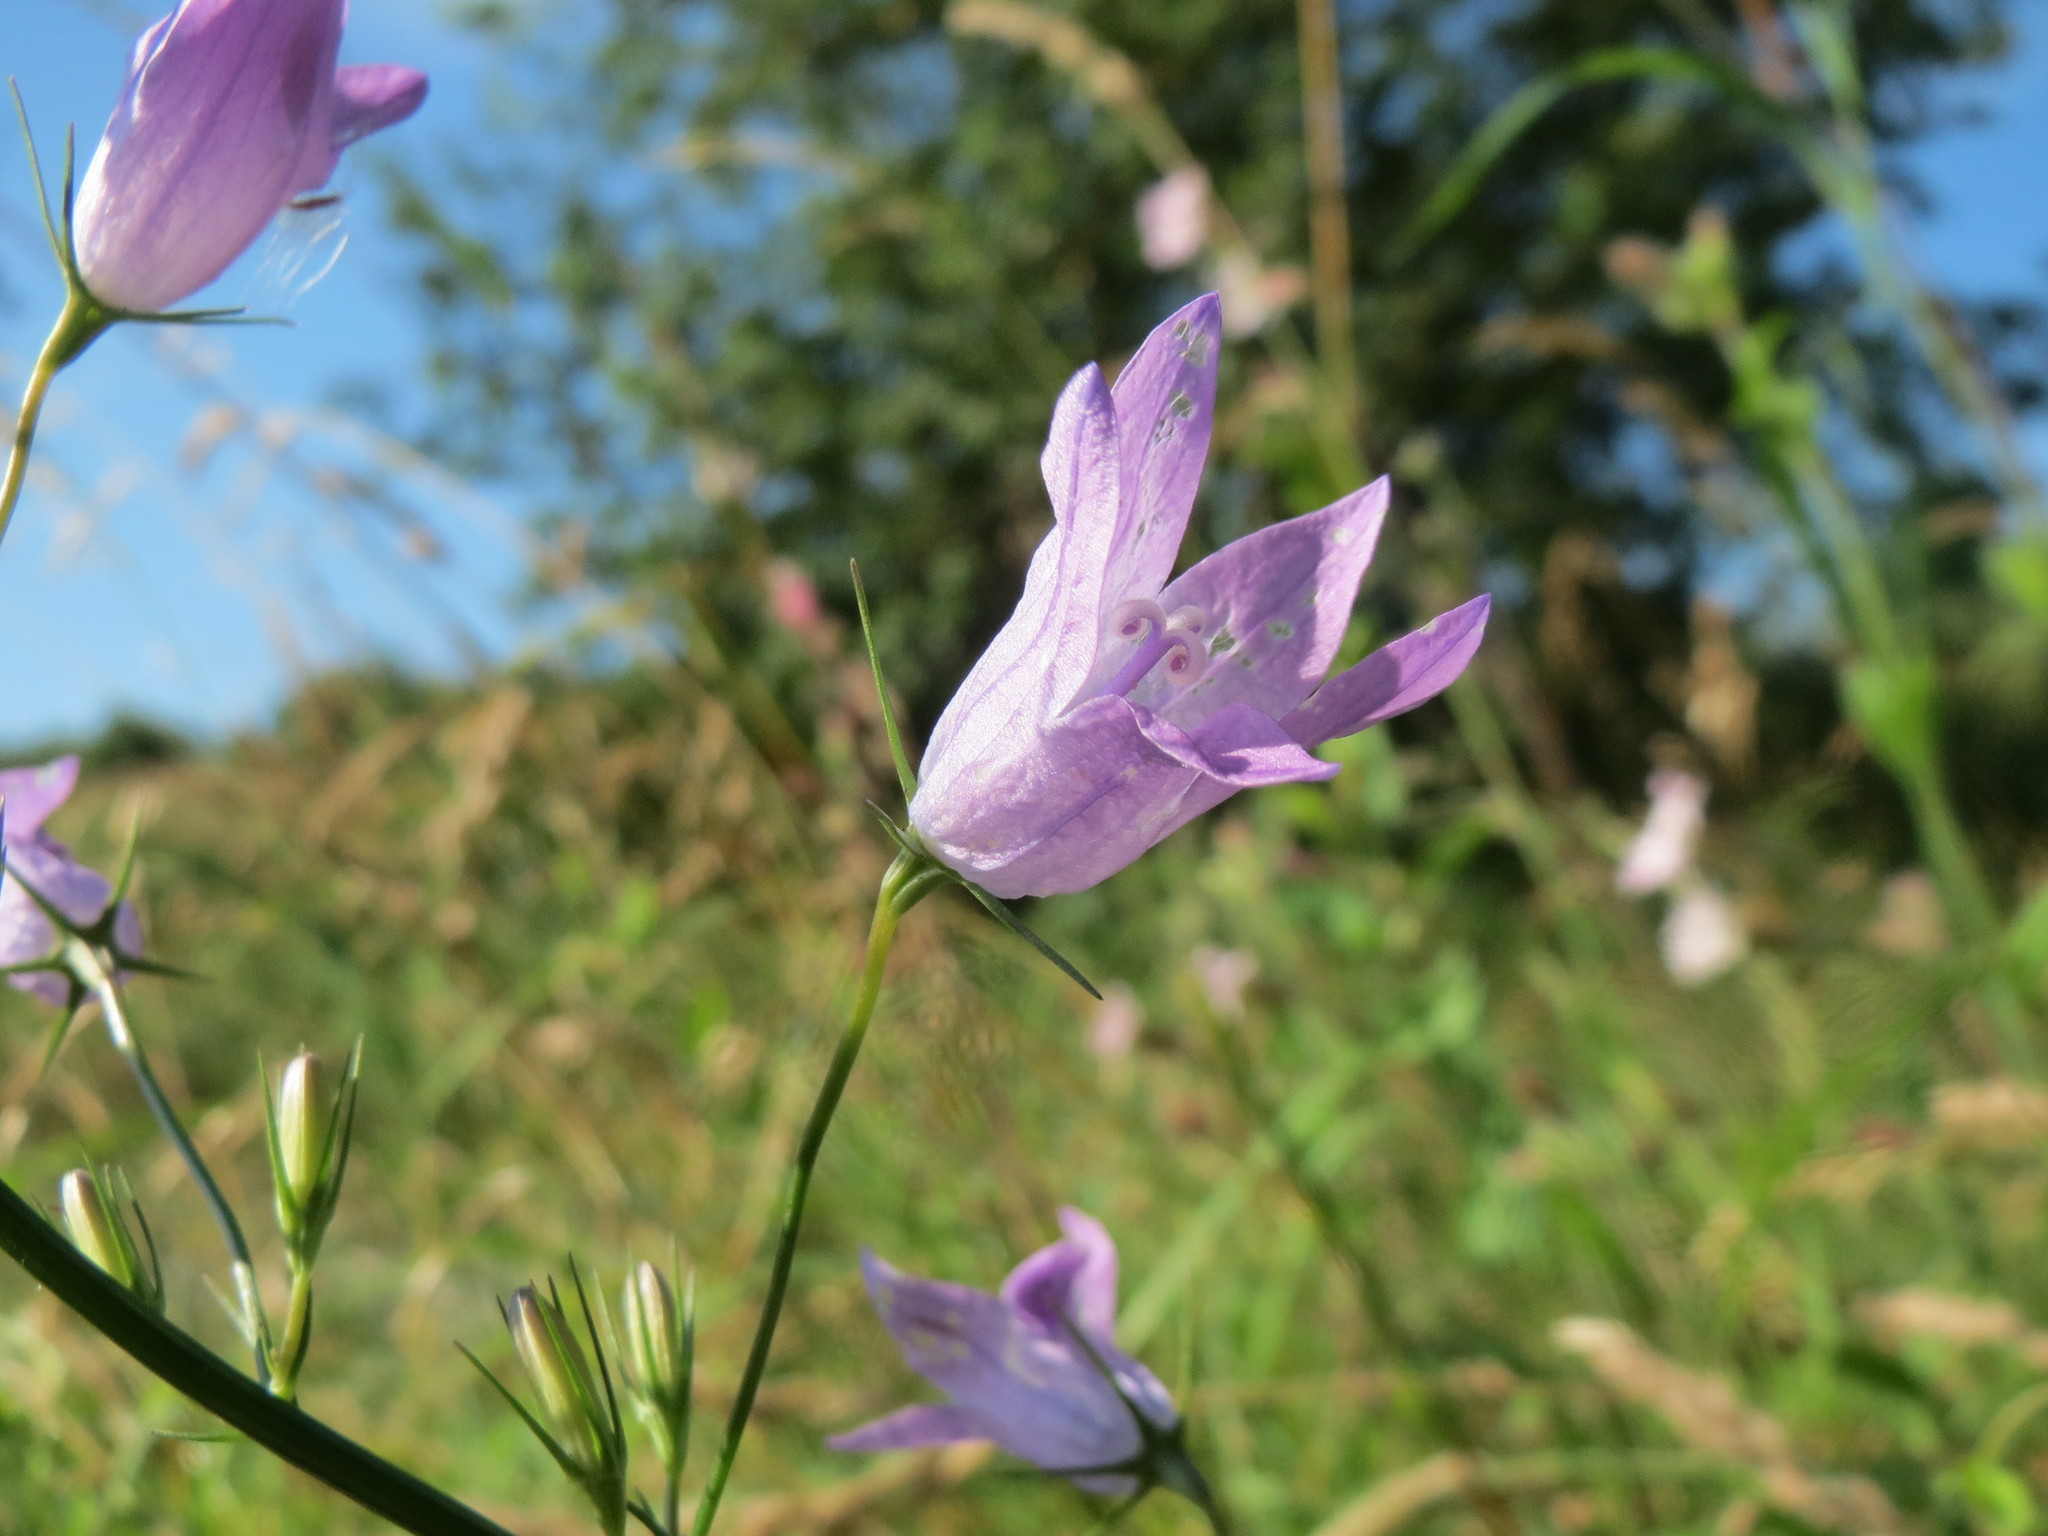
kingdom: Plantae
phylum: Tracheophyta
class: Magnoliopsida
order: Asterales
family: Campanulaceae
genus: Campanula
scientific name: Campanula rapunculus
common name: Rampion bellflower
